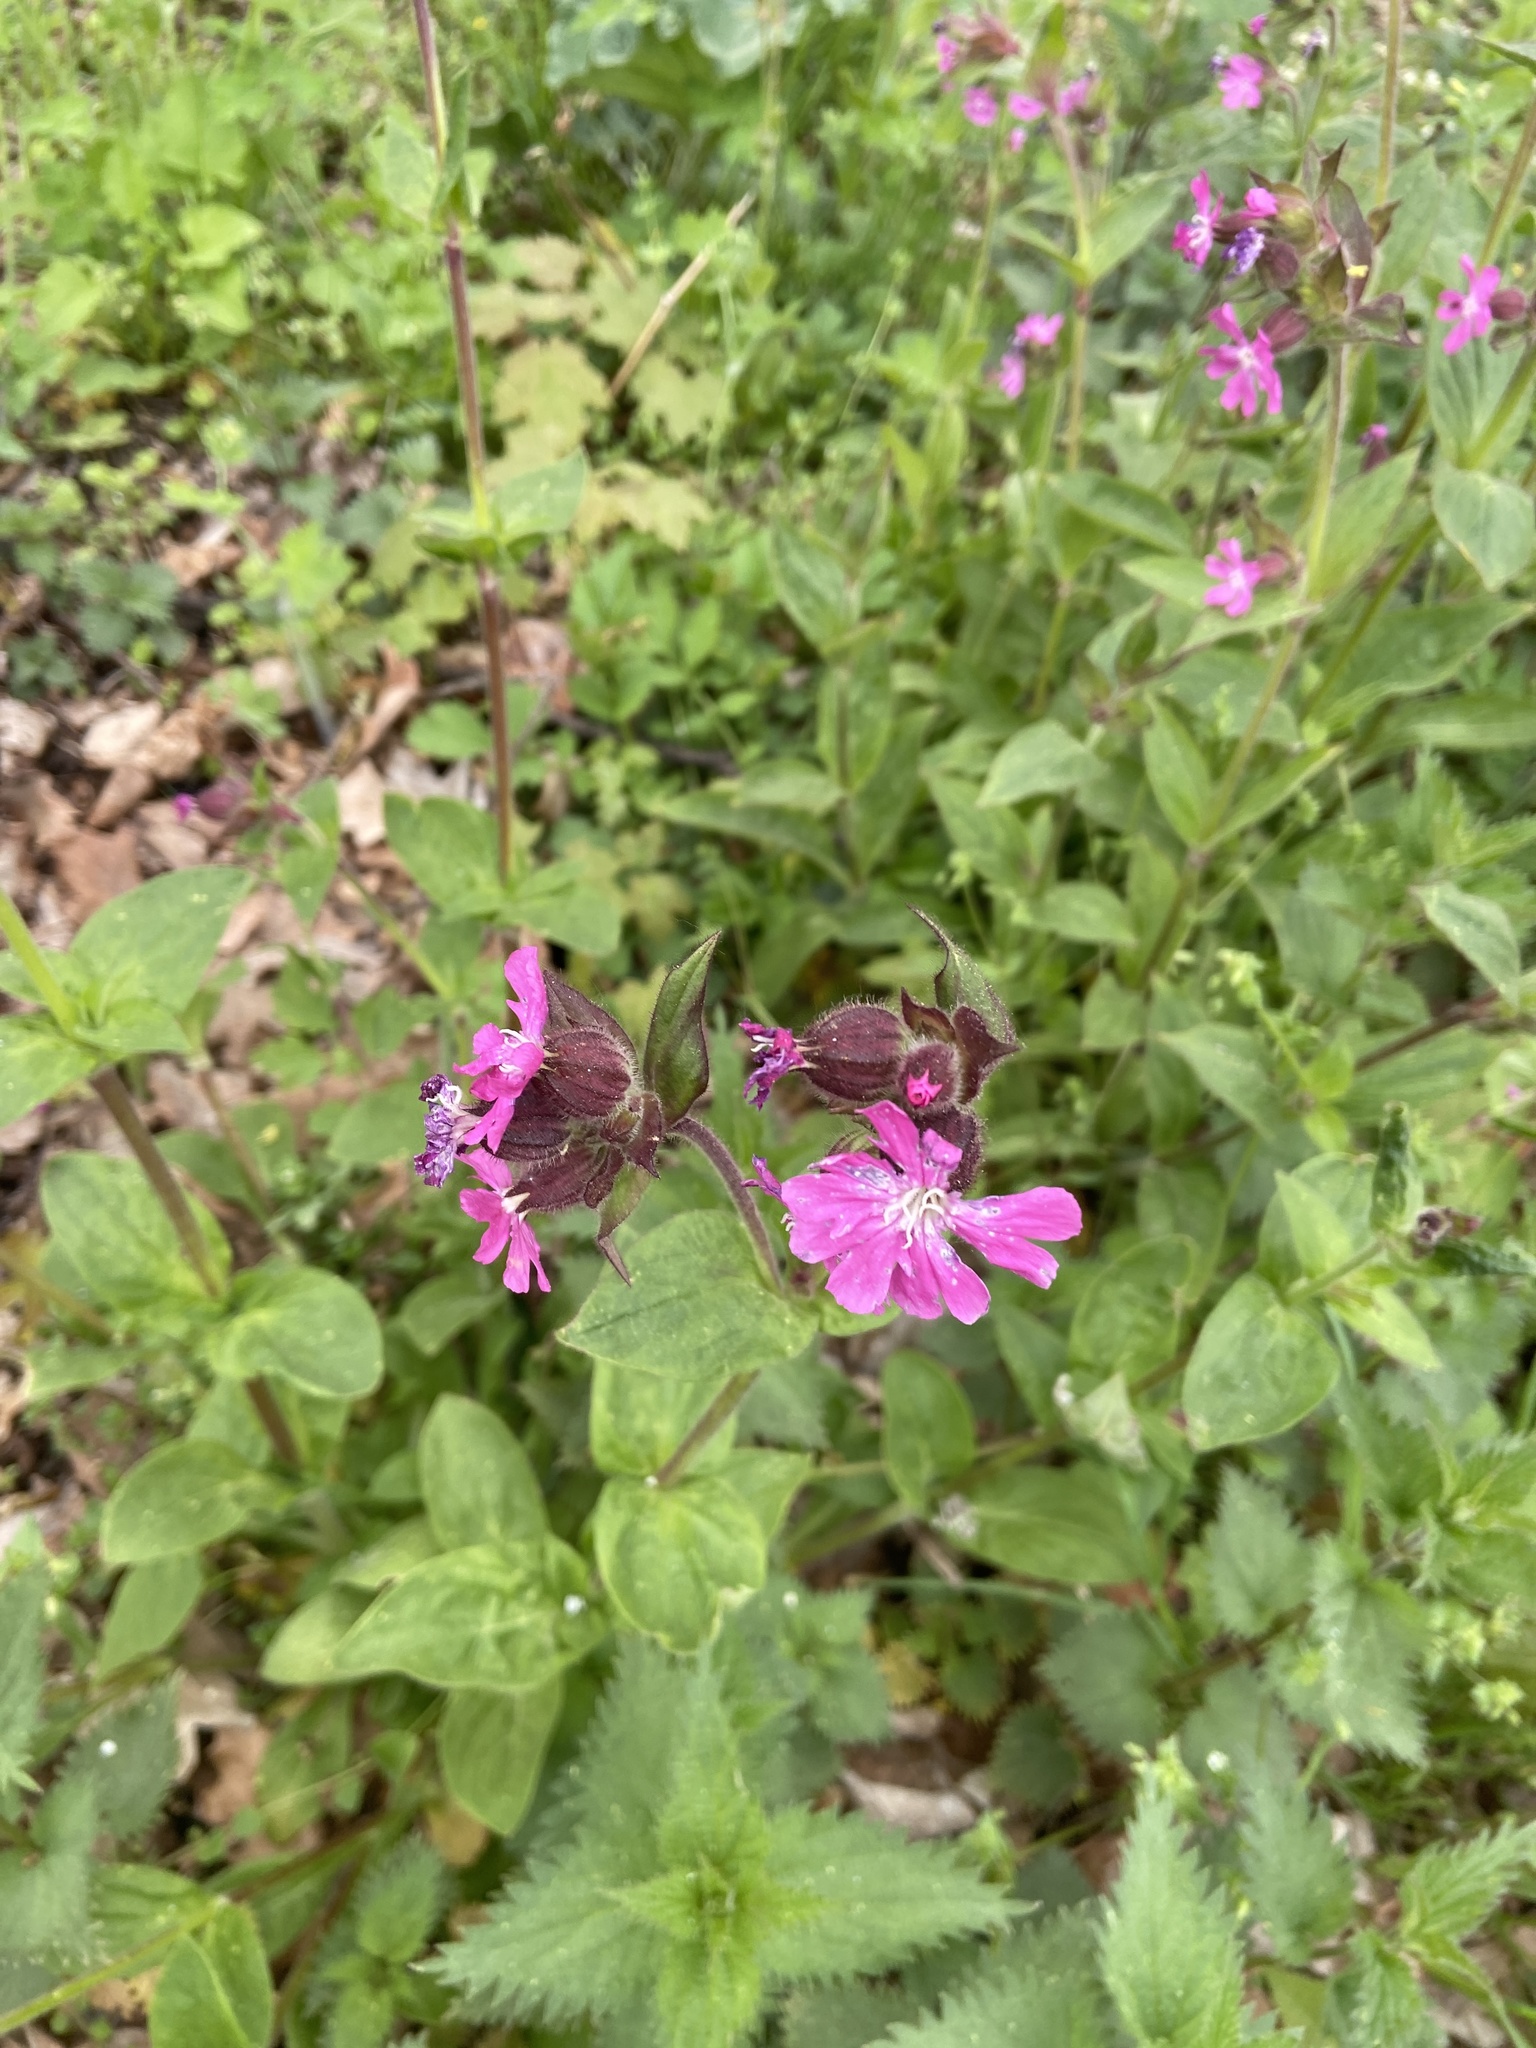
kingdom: Plantae
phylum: Tracheophyta
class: Magnoliopsida
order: Caryophyllales
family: Caryophyllaceae
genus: Silene
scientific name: Silene dioica
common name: Red campion
